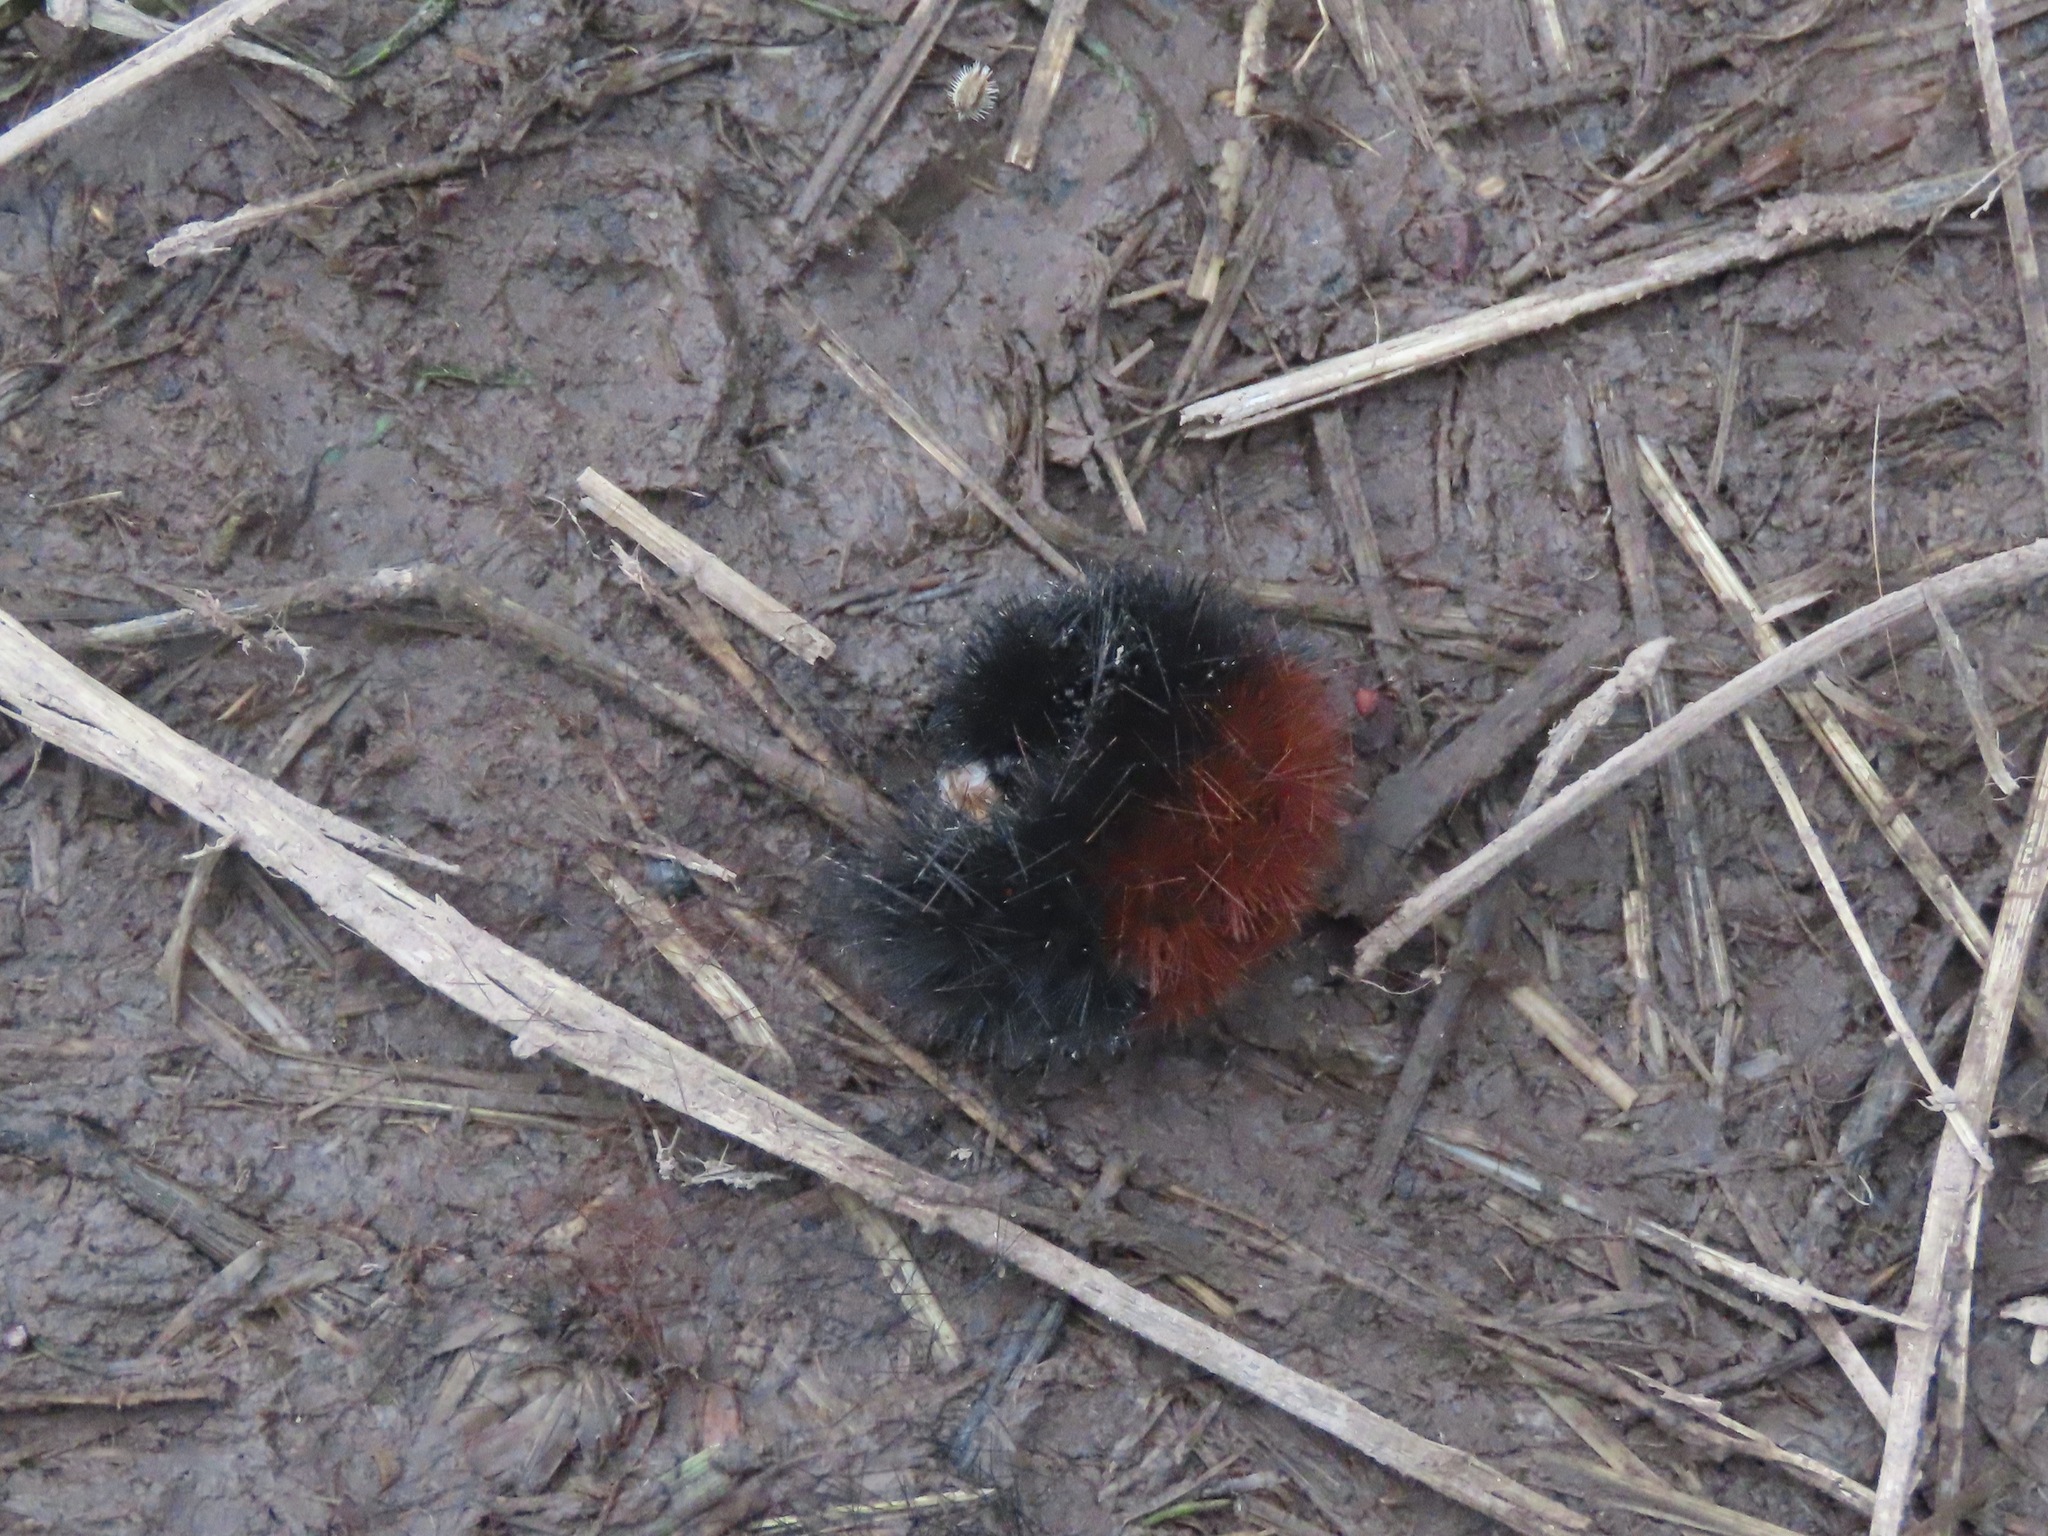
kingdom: Animalia
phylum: Arthropoda
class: Insecta
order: Lepidoptera
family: Erebidae
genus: Pyrrharctia
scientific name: Pyrrharctia isabella
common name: Isabella tiger moth
